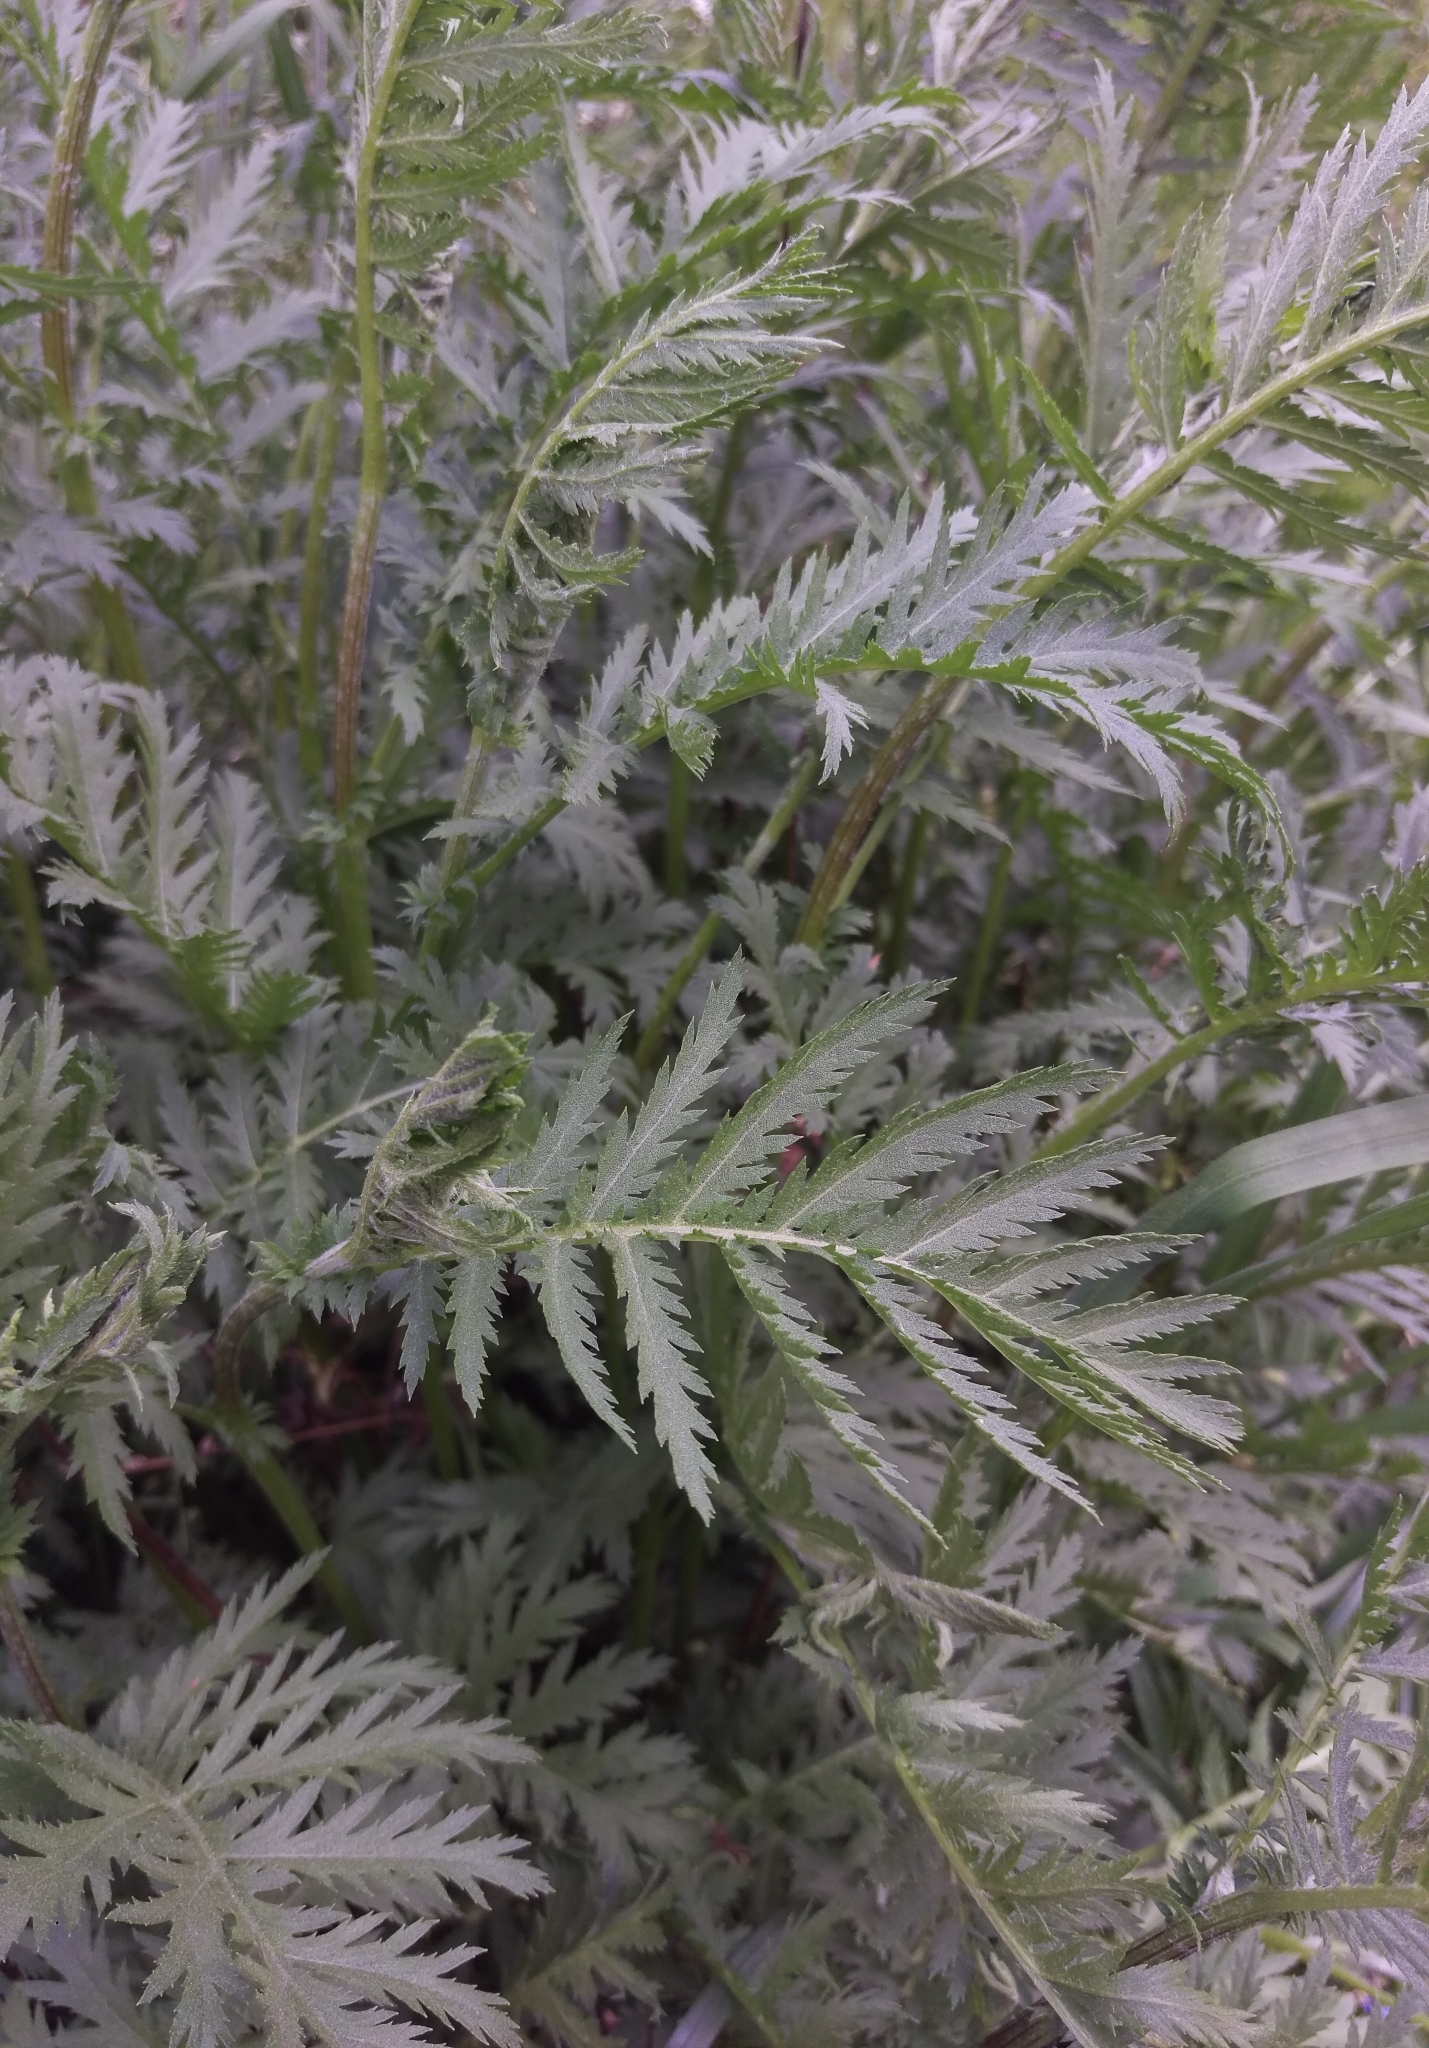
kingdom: Plantae
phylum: Tracheophyta
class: Magnoliopsida
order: Asterales
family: Asteraceae
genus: Tanacetum
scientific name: Tanacetum vulgare
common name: Common tansy
